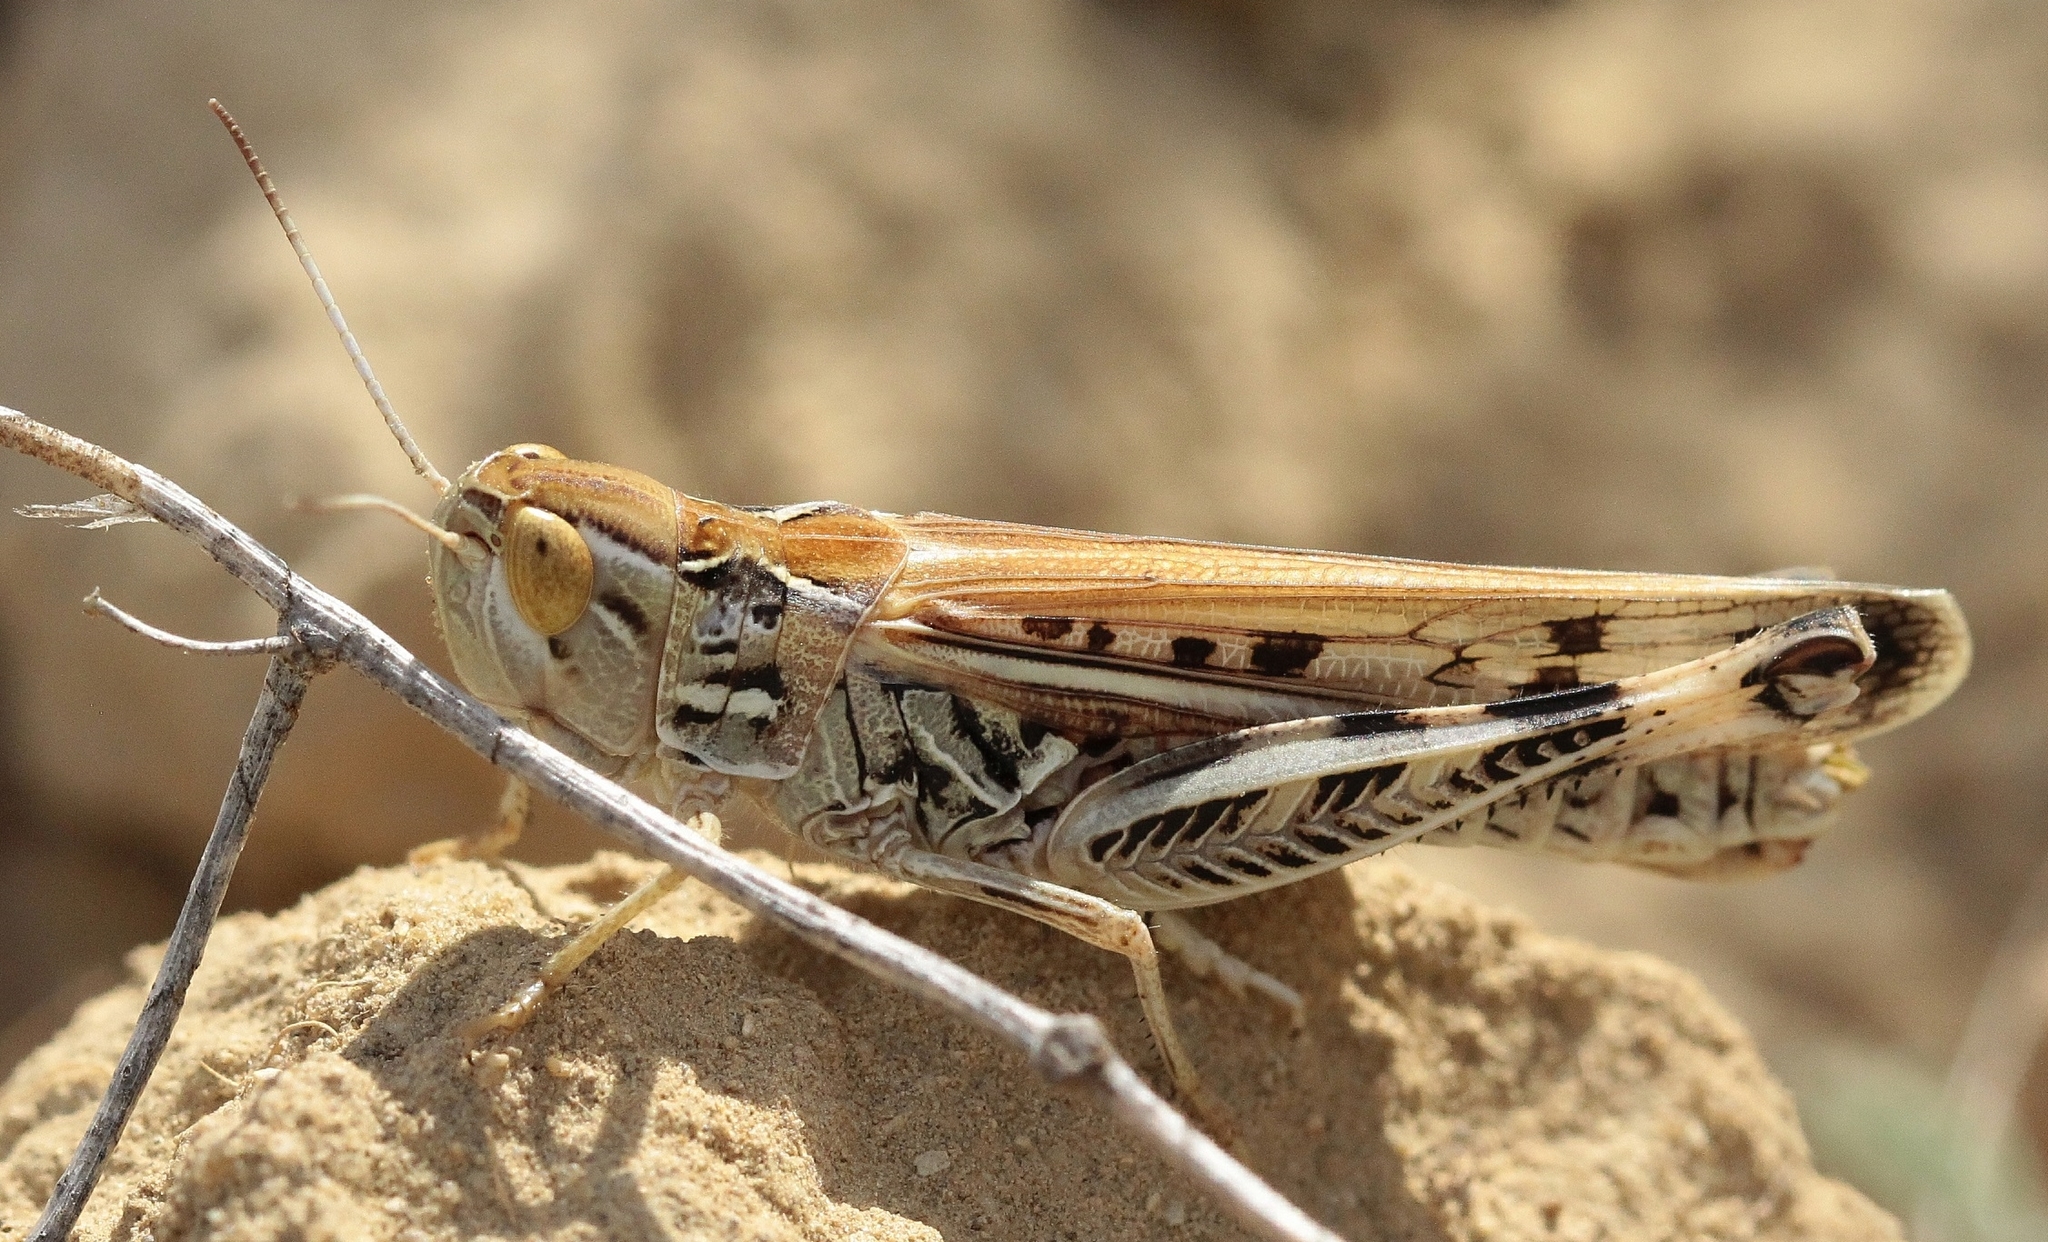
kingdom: Animalia
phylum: Arthropoda
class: Insecta
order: Orthoptera
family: Acrididae
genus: Ramburiella
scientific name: Ramburiella foveolata
